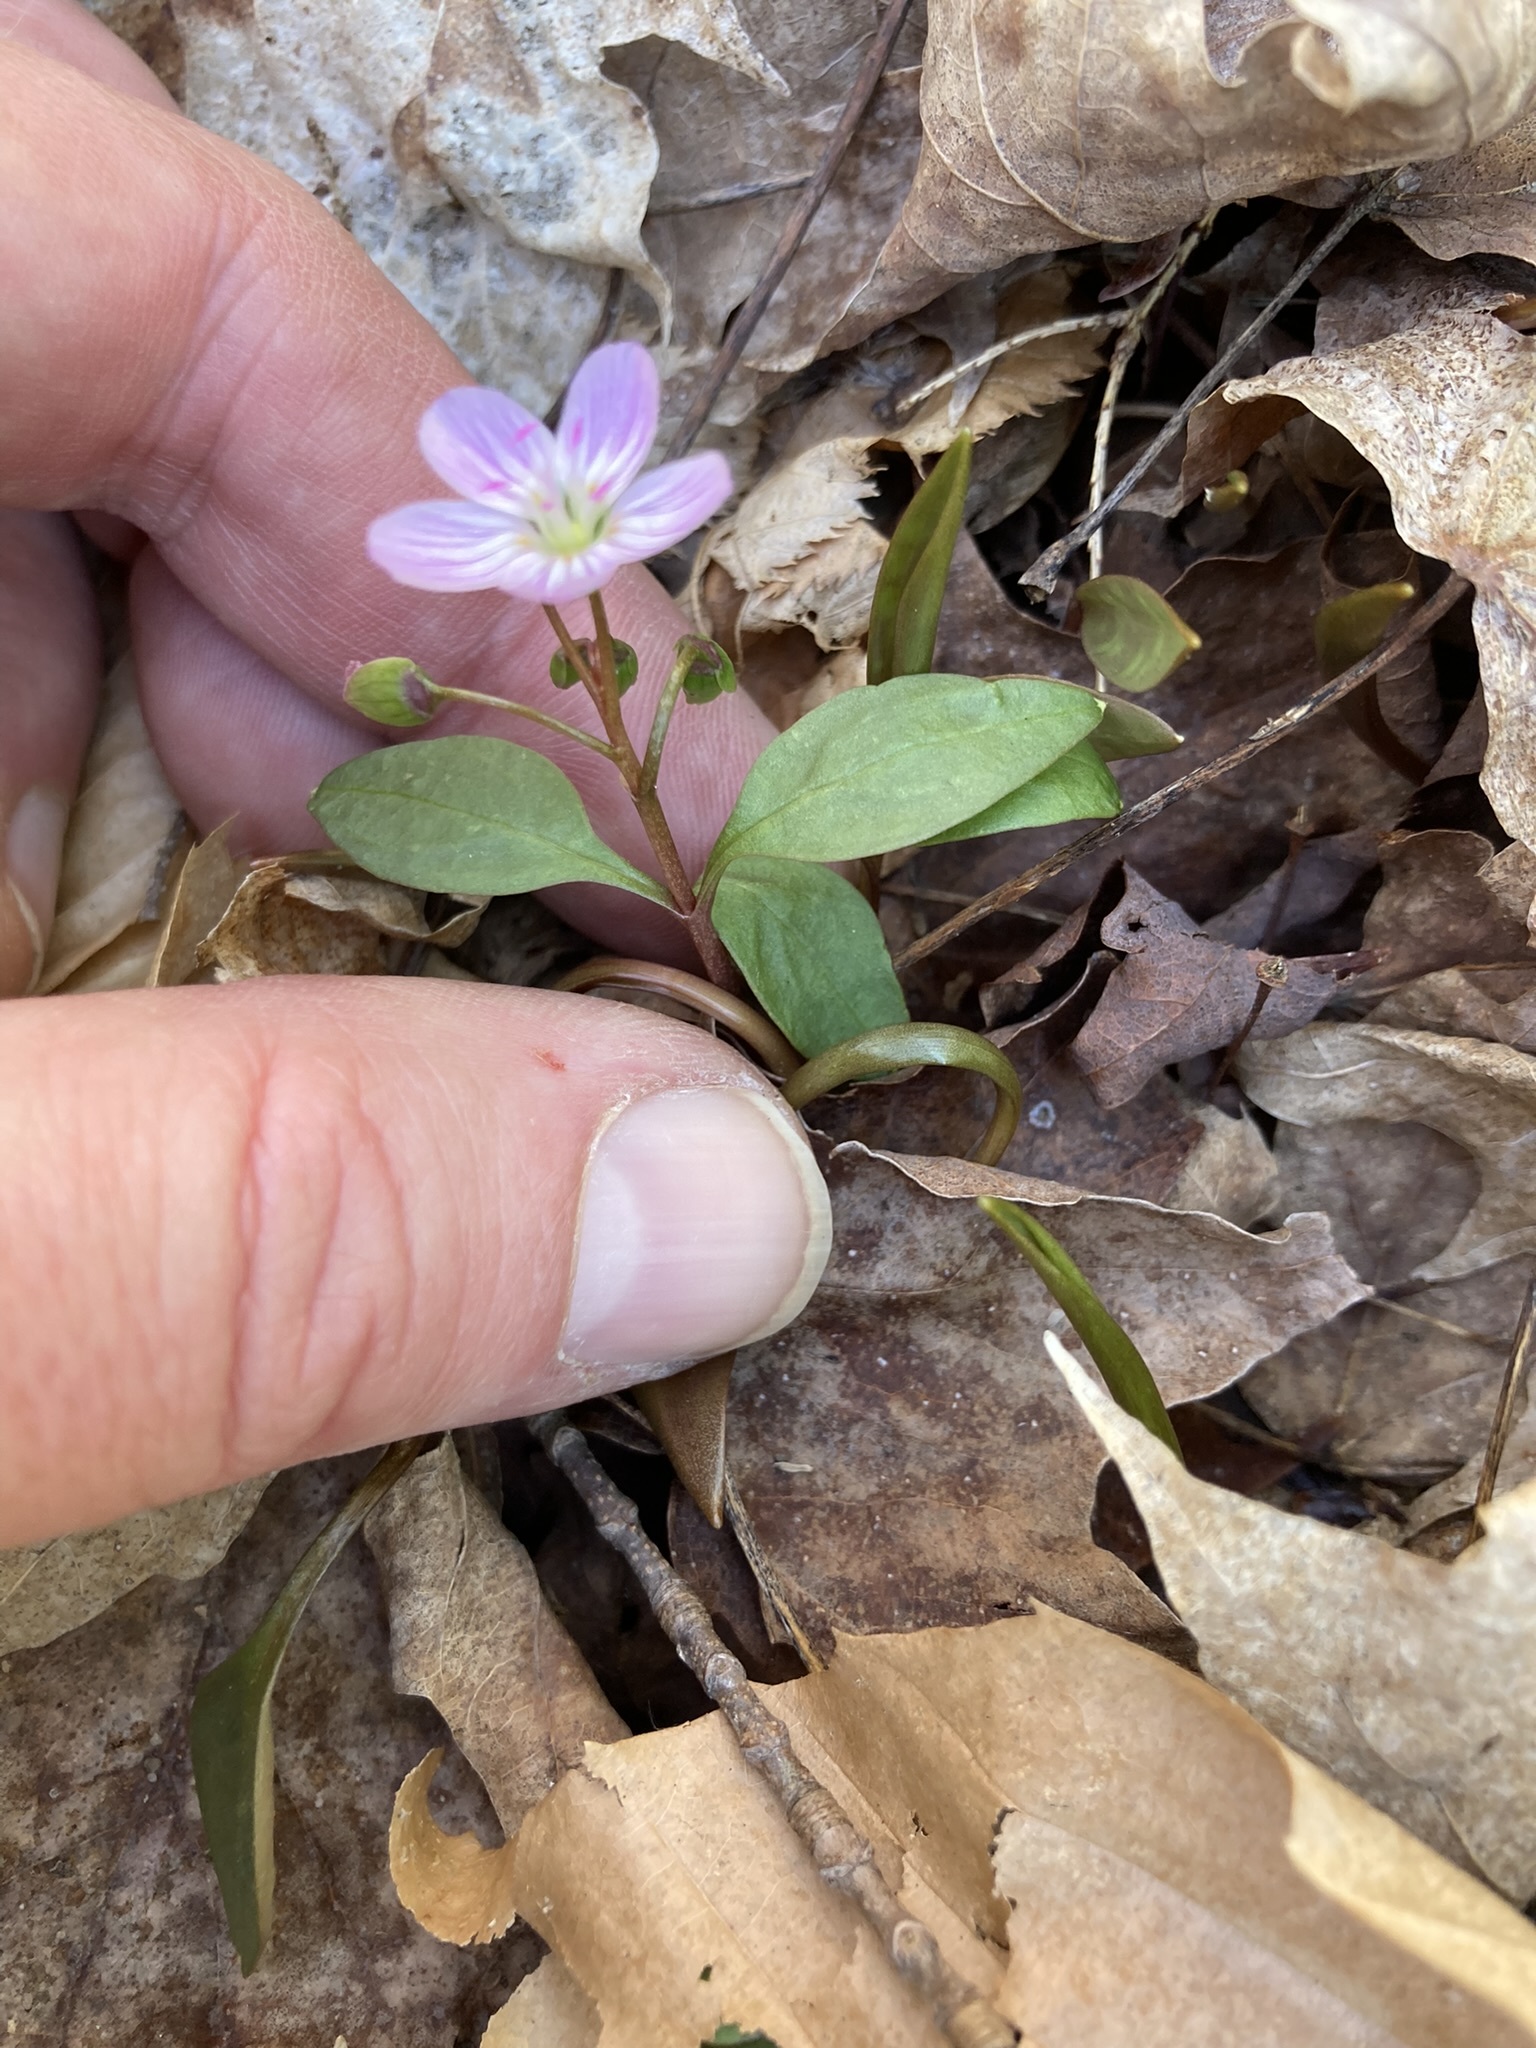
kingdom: Plantae
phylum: Tracheophyta
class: Magnoliopsida
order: Caryophyllales
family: Montiaceae
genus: Claytonia
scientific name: Claytonia caroliniana
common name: Carolina spring beauty
